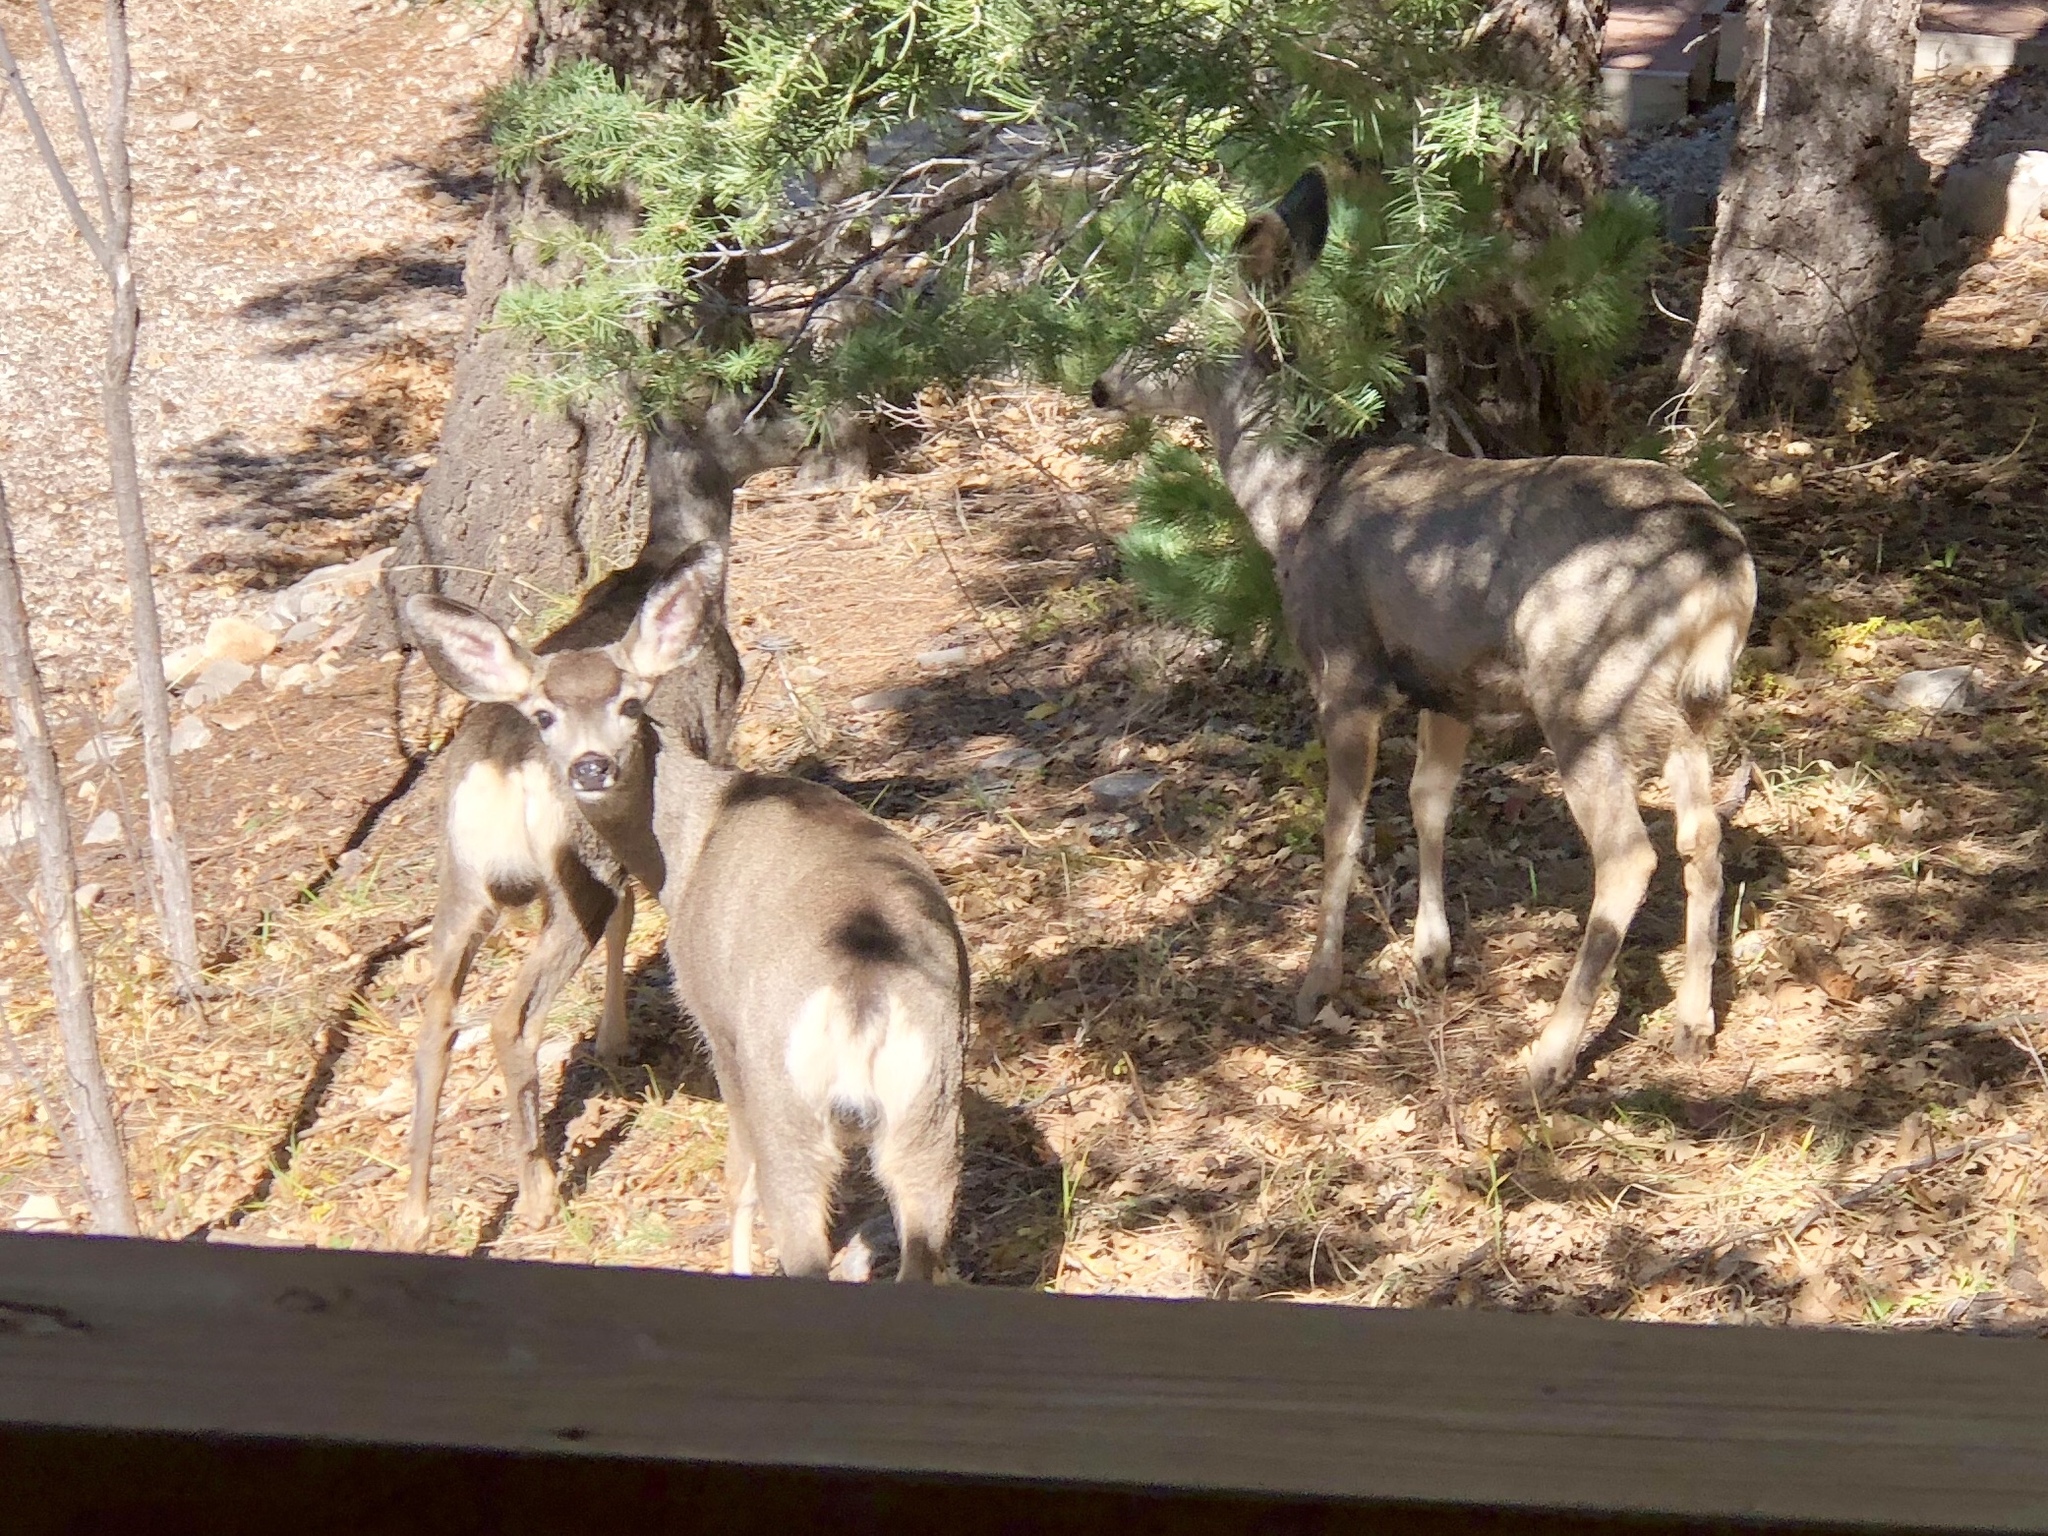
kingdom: Animalia
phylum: Chordata
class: Mammalia
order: Artiodactyla
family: Cervidae
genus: Odocoileus
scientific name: Odocoileus hemionus
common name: Mule deer
